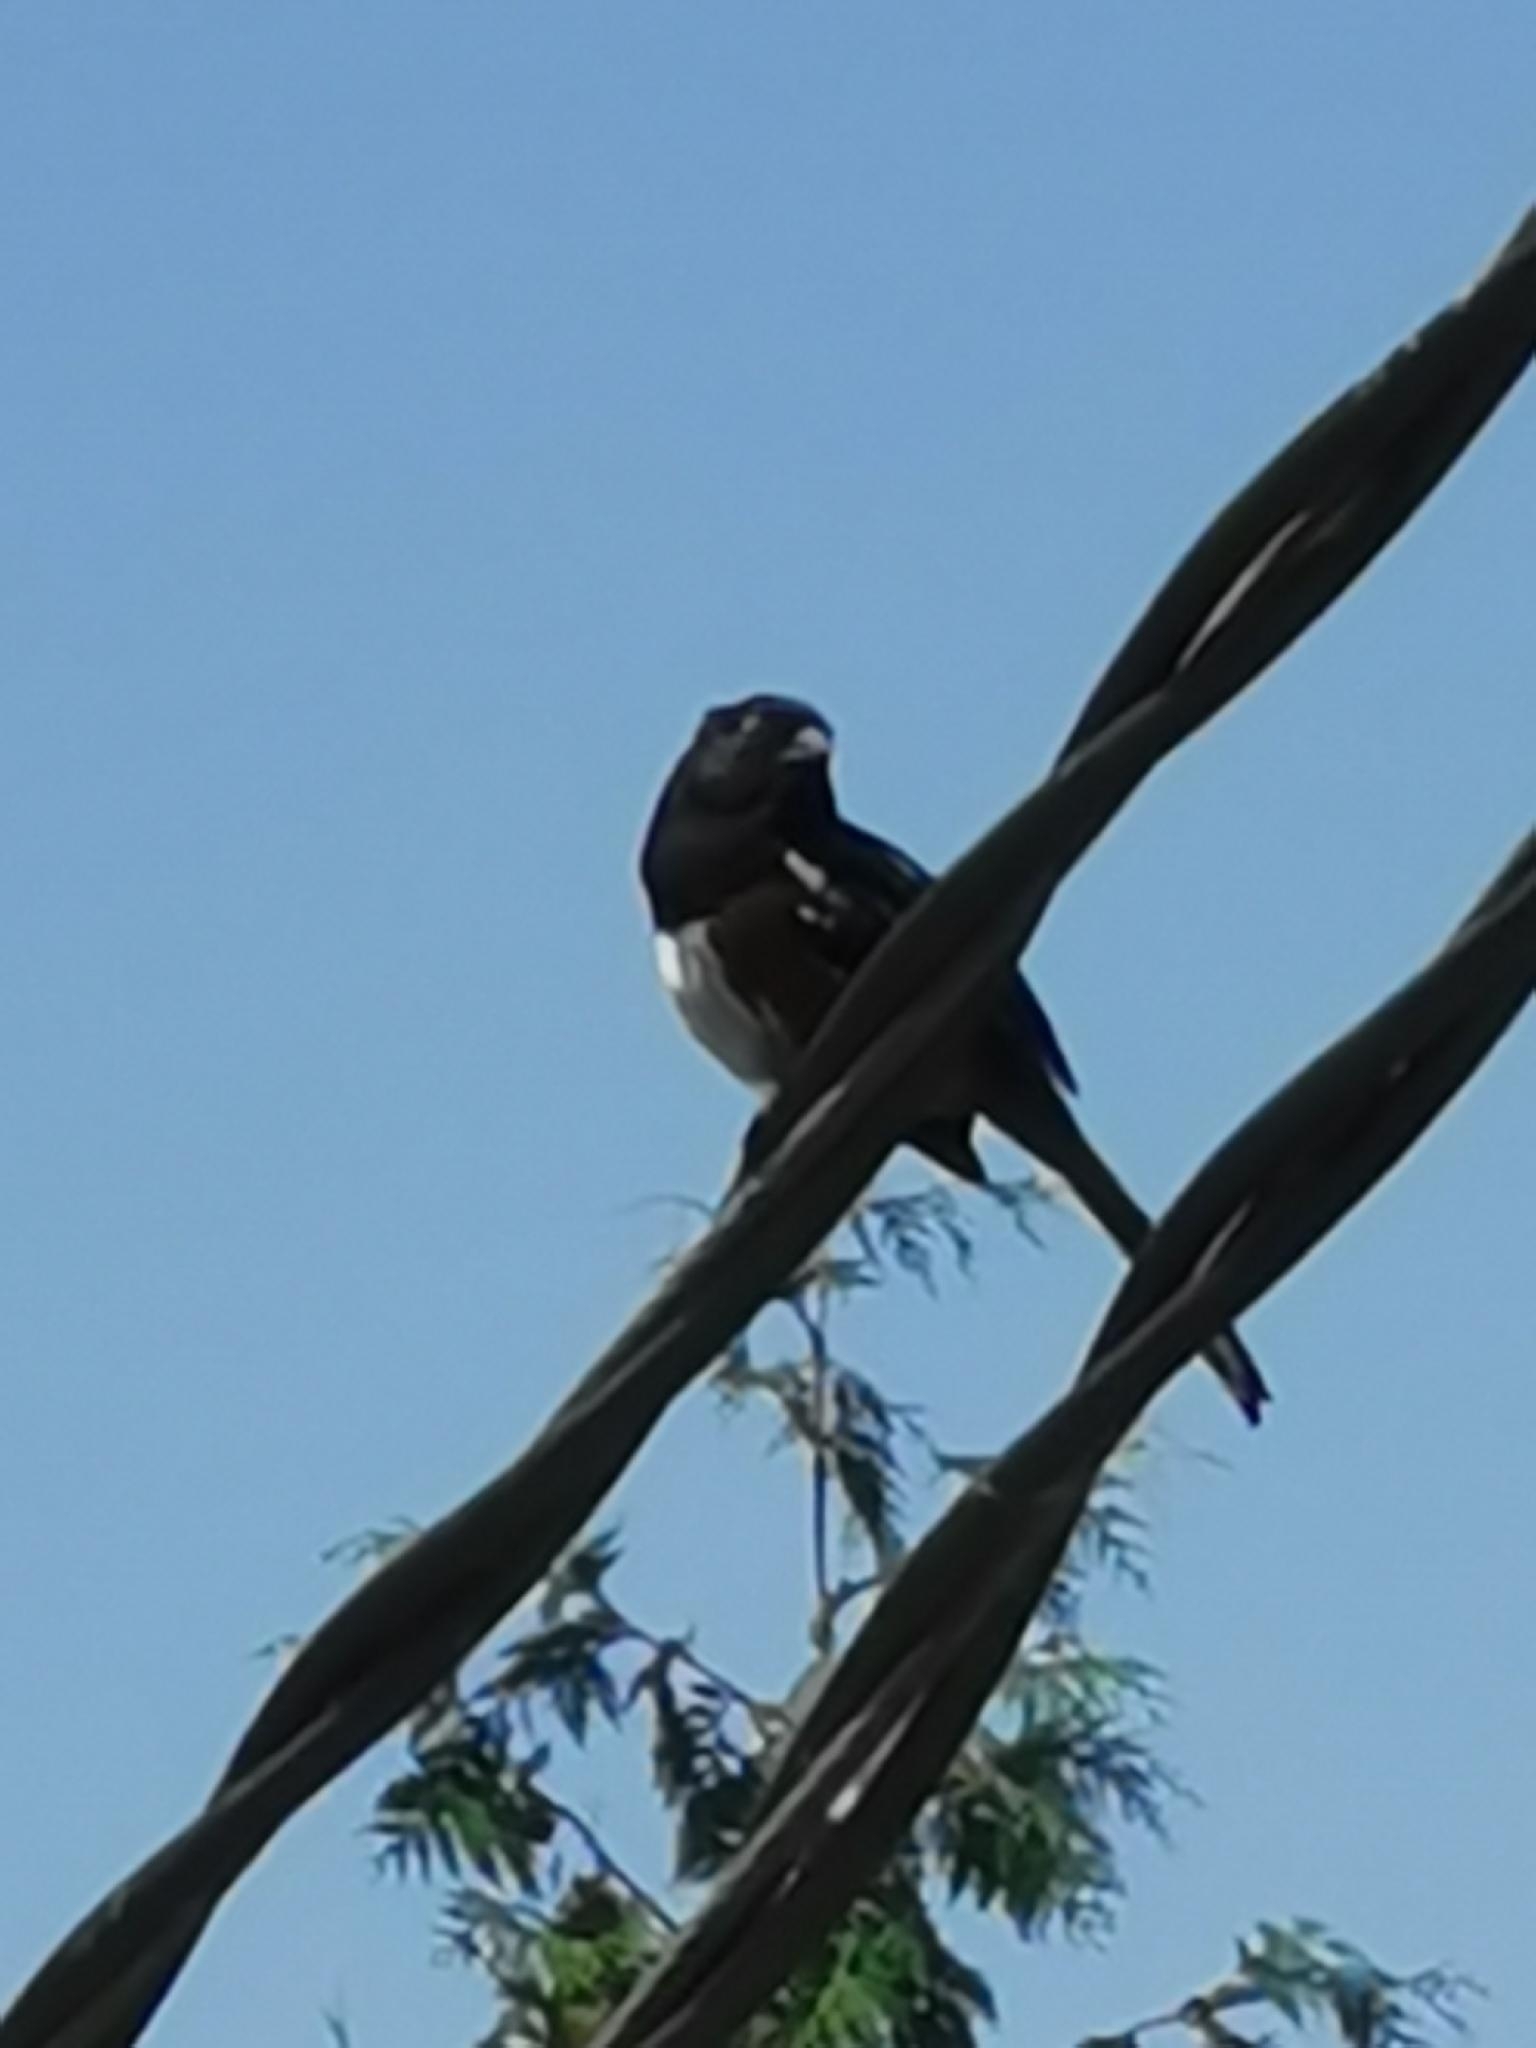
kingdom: Animalia
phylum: Chordata
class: Aves
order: Passeriformes
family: Passerellidae
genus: Pipilo
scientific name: Pipilo maculatus
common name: Spotted towhee
